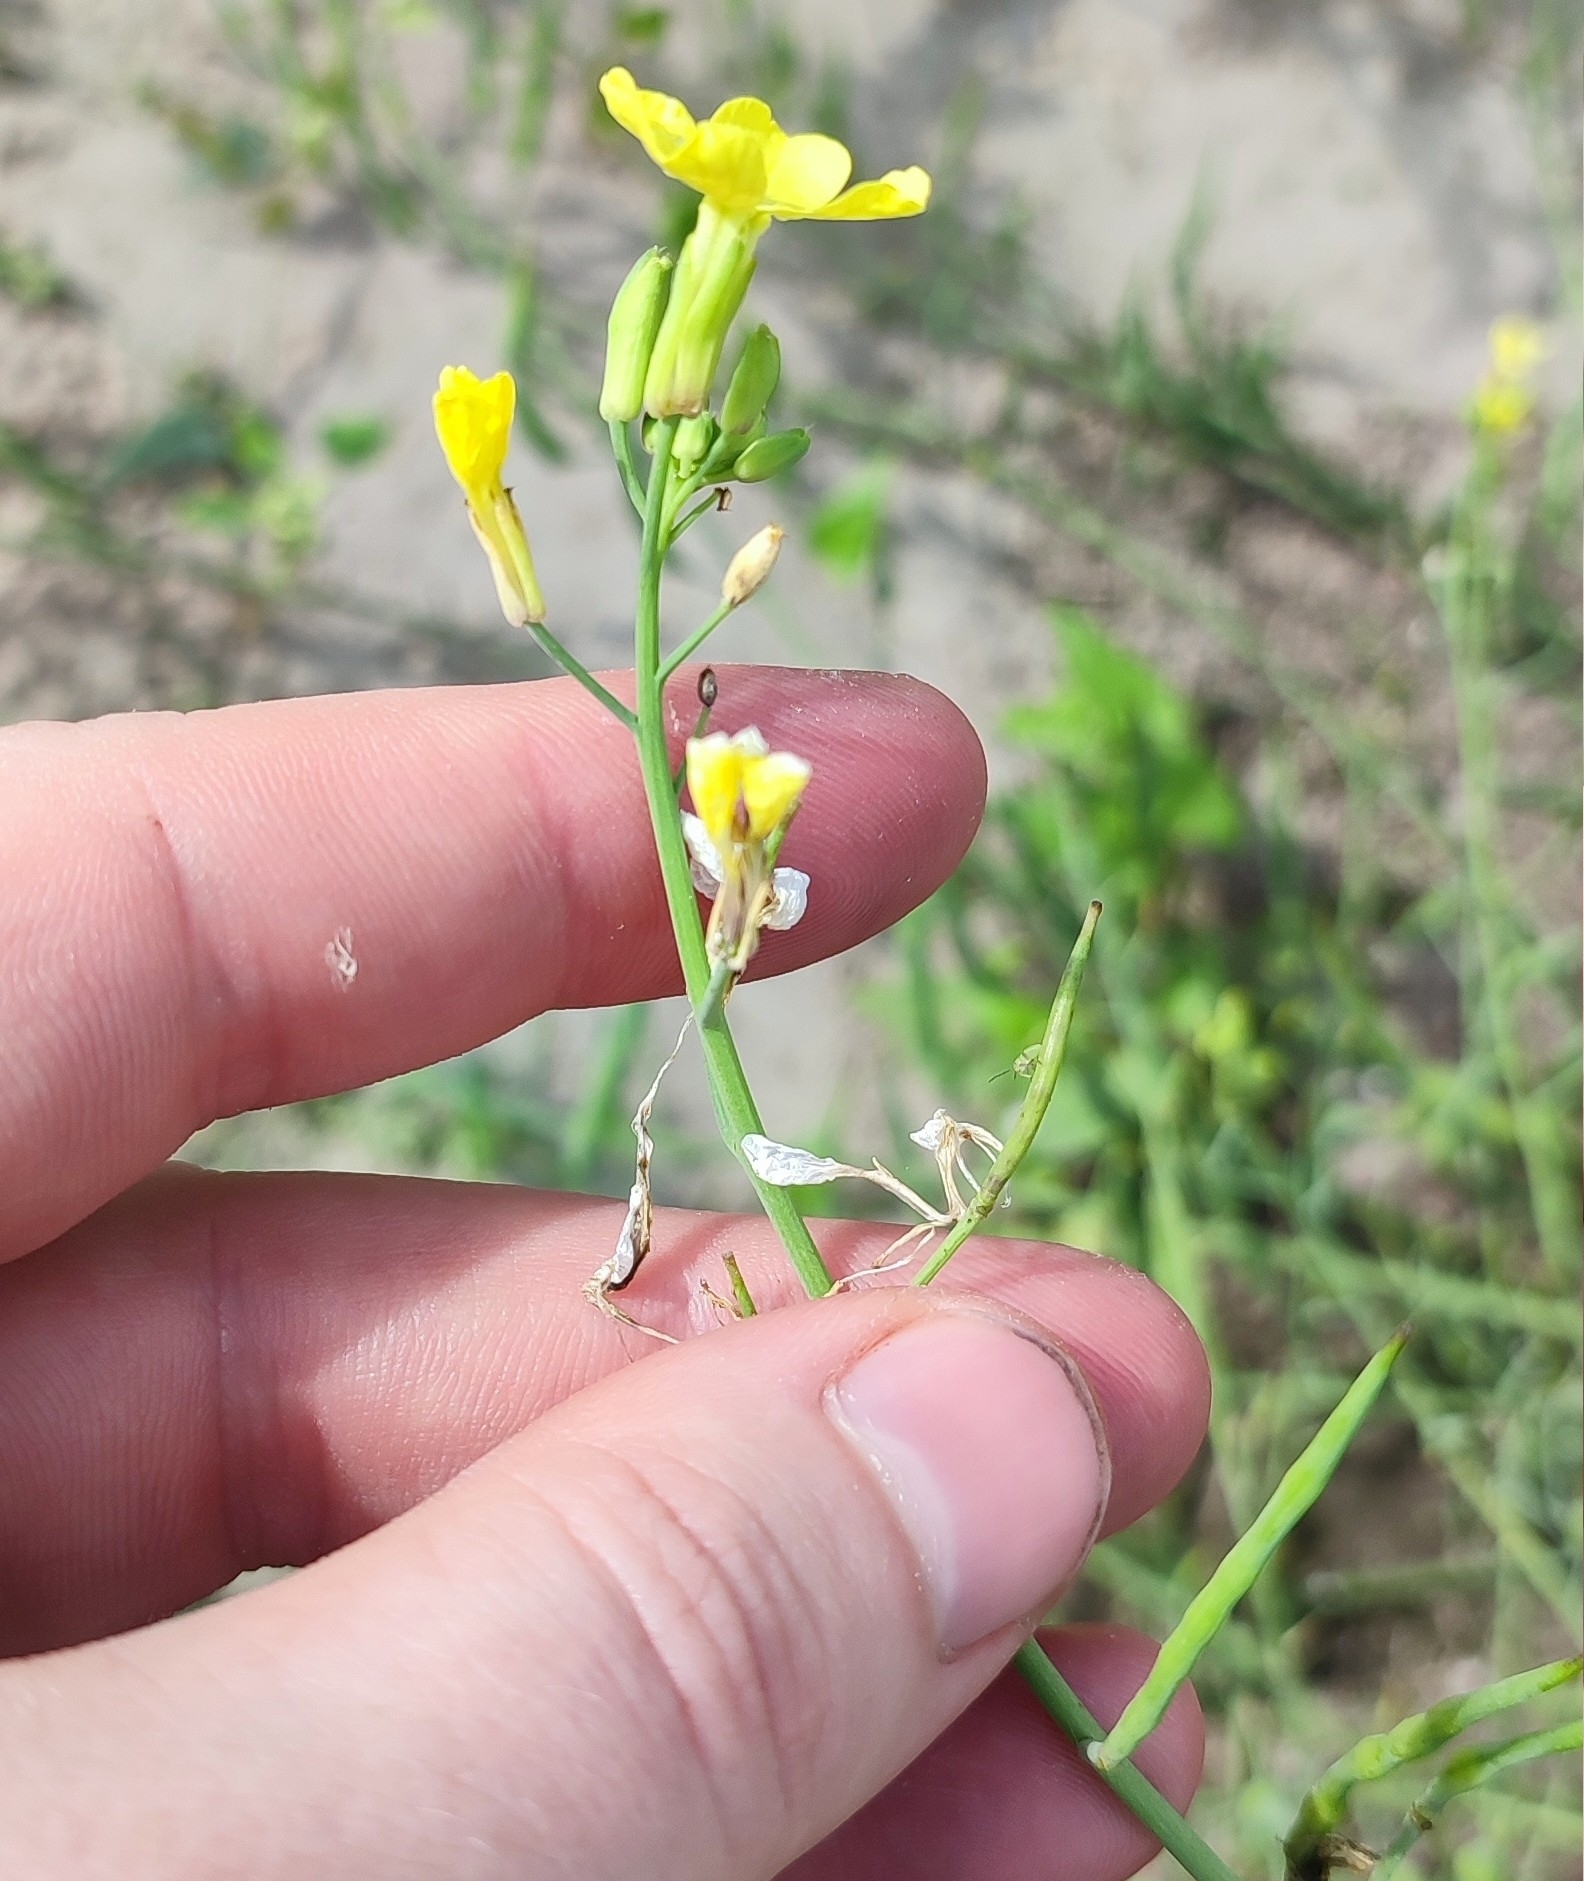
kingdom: Plantae
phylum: Tracheophyta
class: Magnoliopsida
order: Brassicales
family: Brassicaceae
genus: Raphanus
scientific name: Raphanus raphanistrum
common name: Wild radish
